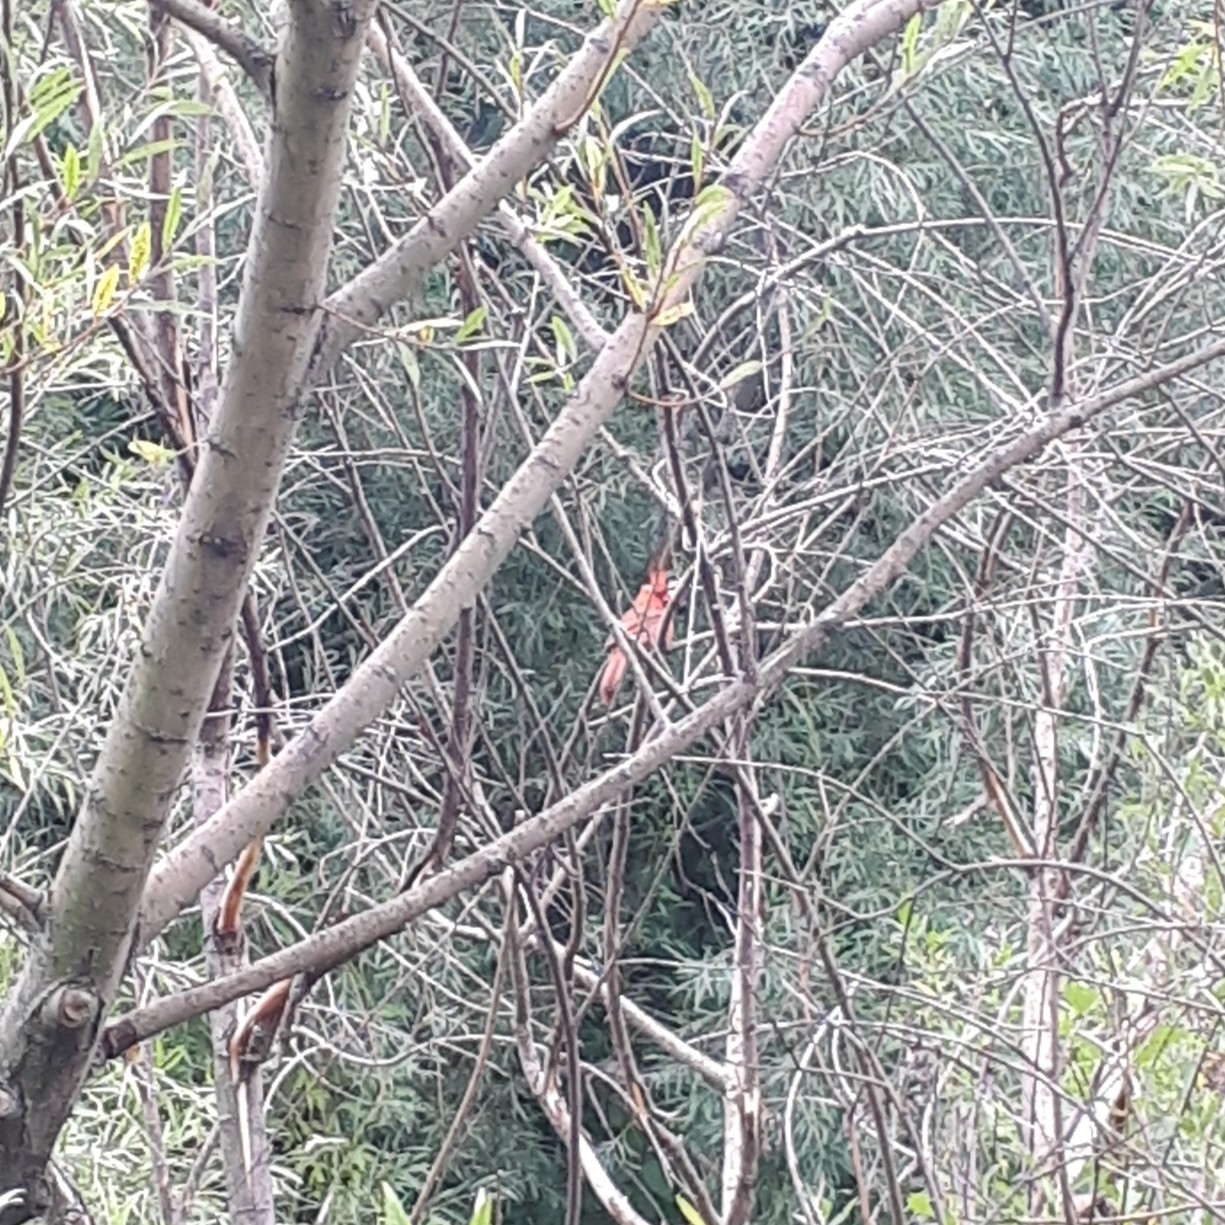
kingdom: Animalia
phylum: Chordata
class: Aves
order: Passeriformes
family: Cardinalidae
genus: Cardinalis
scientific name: Cardinalis cardinalis
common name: Northern cardinal
